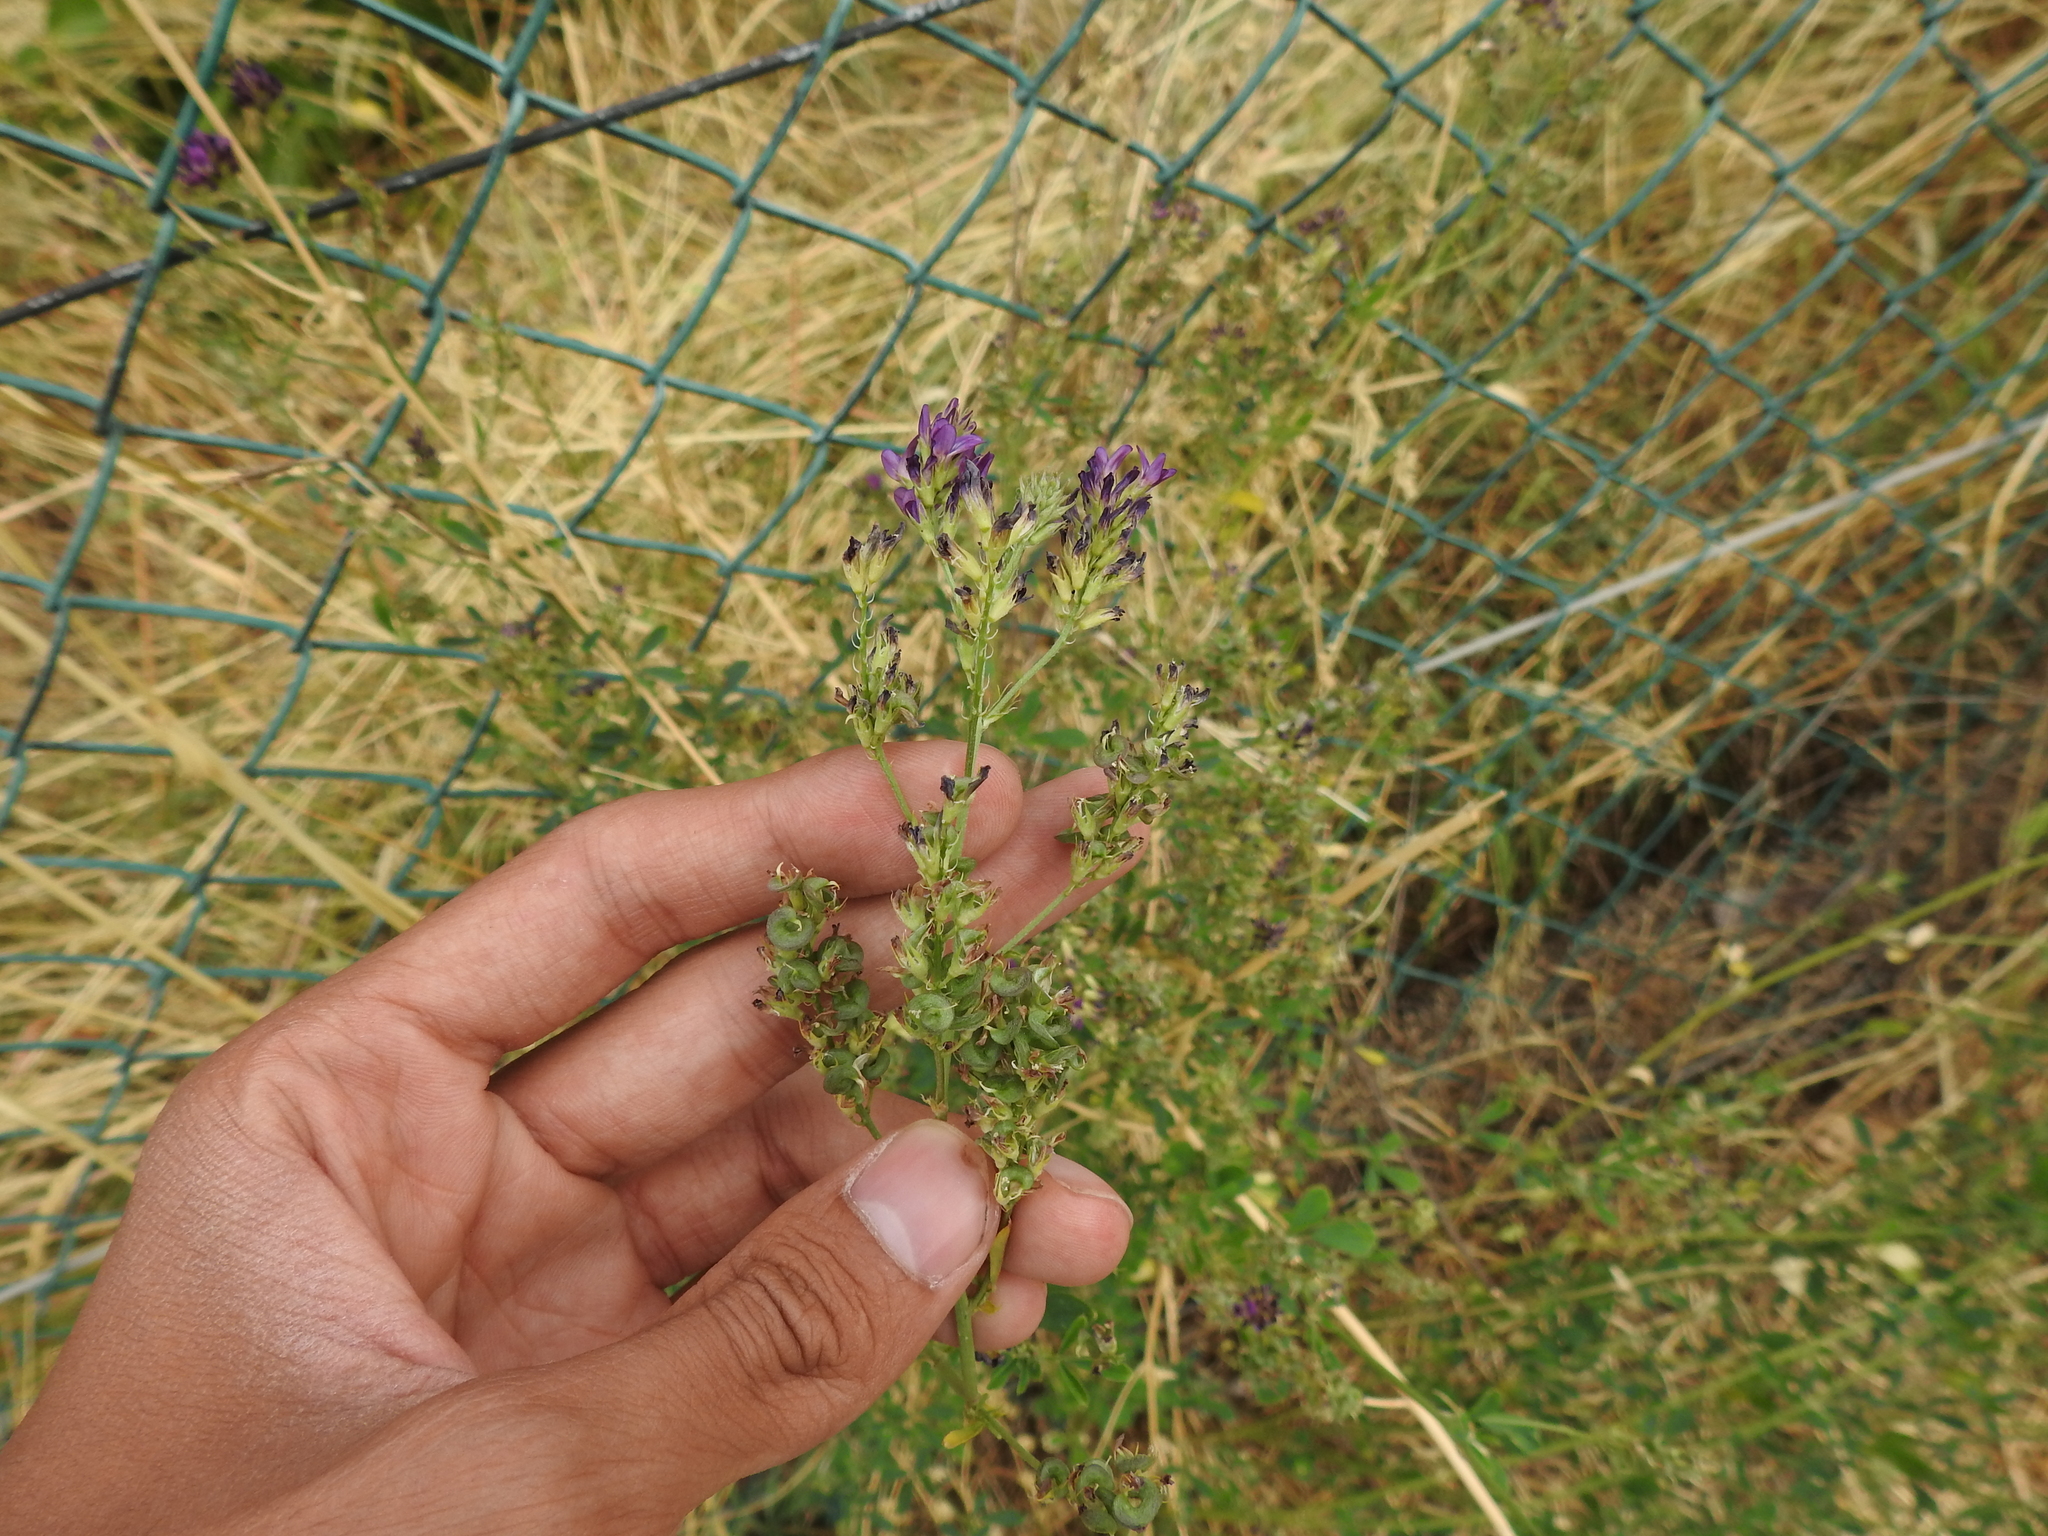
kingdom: Plantae
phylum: Tracheophyta
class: Magnoliopsida
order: Fabales
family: Fabaceae
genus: Medicago
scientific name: Medicago sativa
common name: Alfalfa
